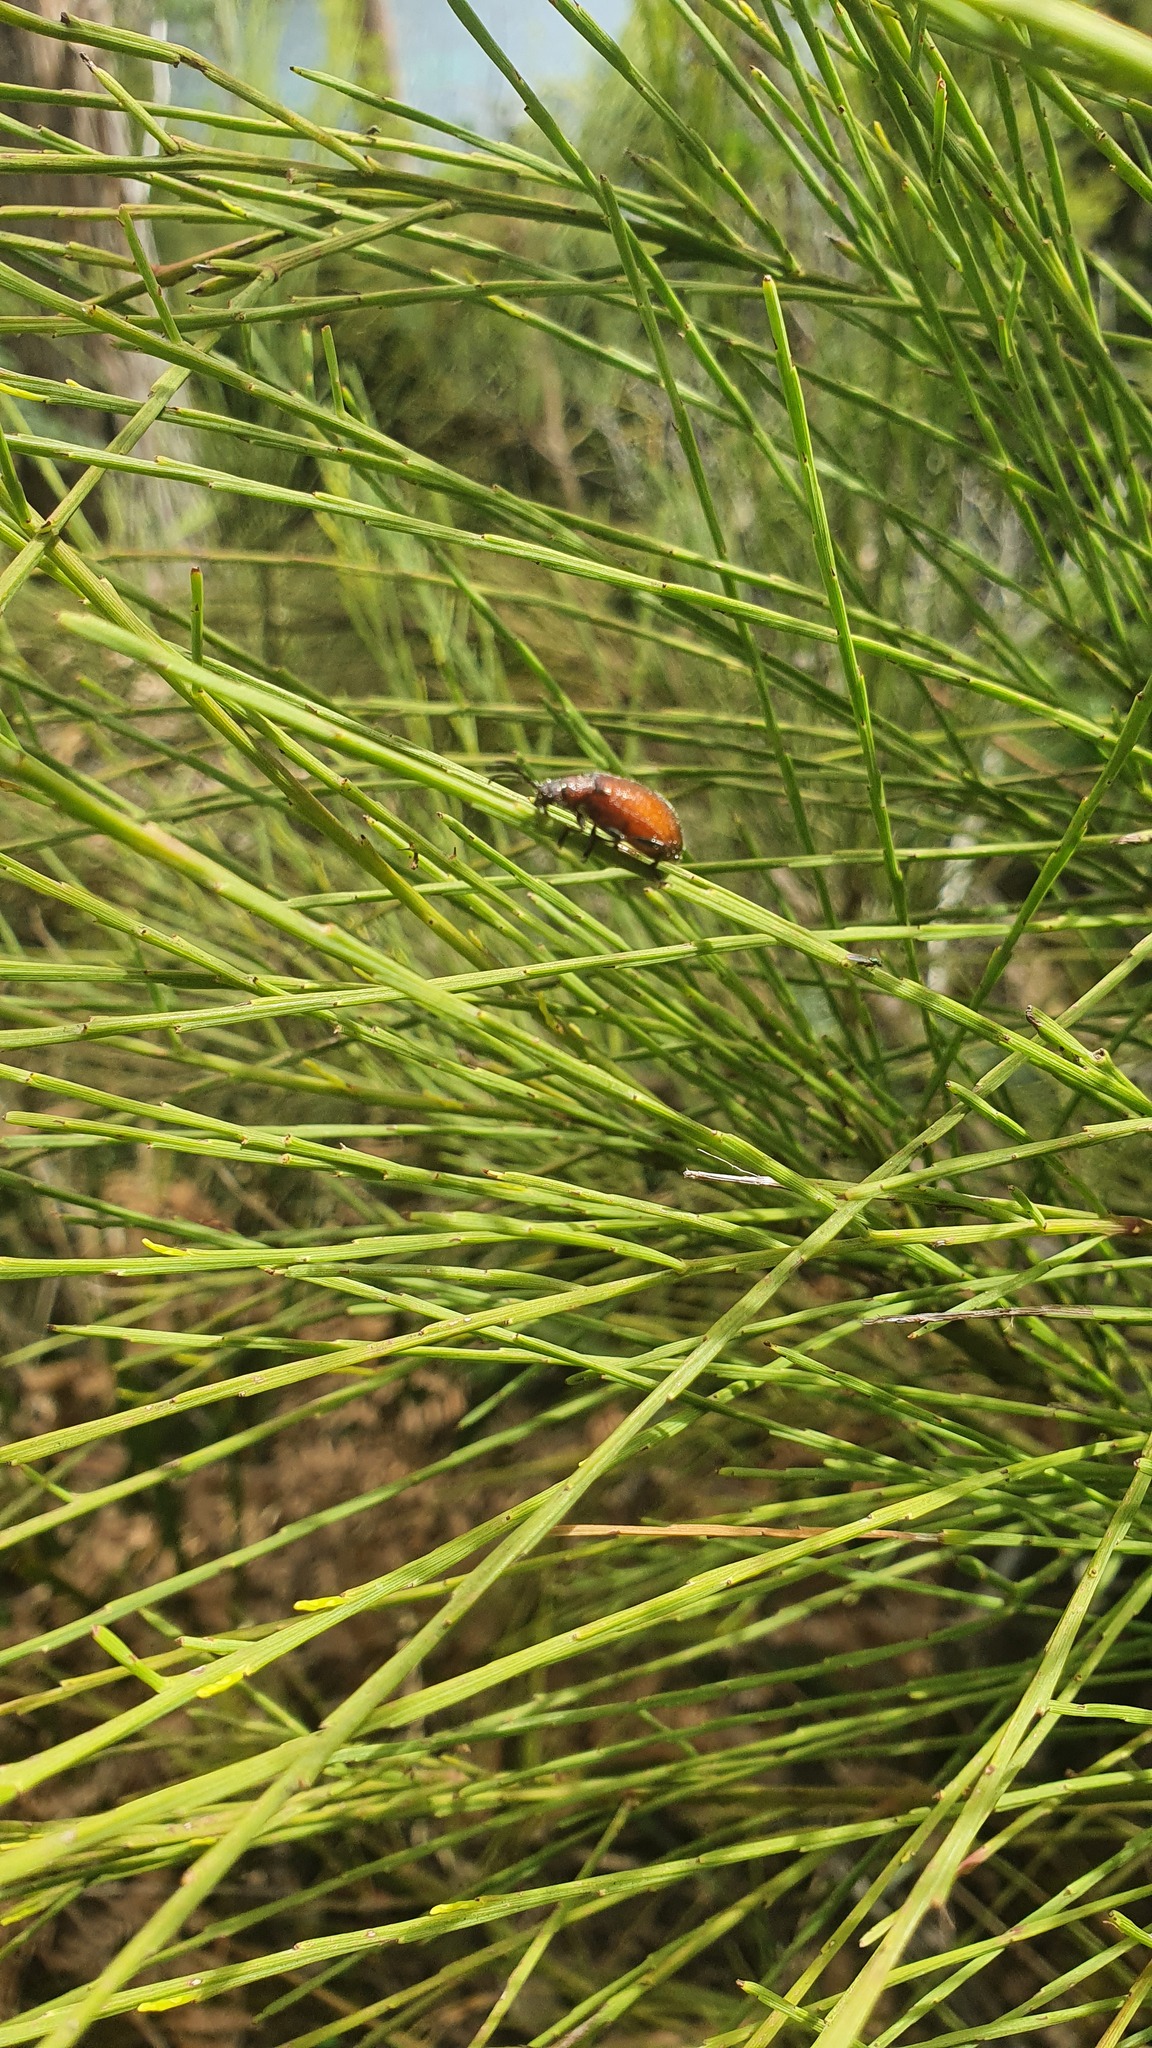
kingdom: Animalia
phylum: Arthropoda
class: Insecta
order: Coleoptera
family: Tenebrionidae
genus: Ecnolagria
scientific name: Ecnolagria
